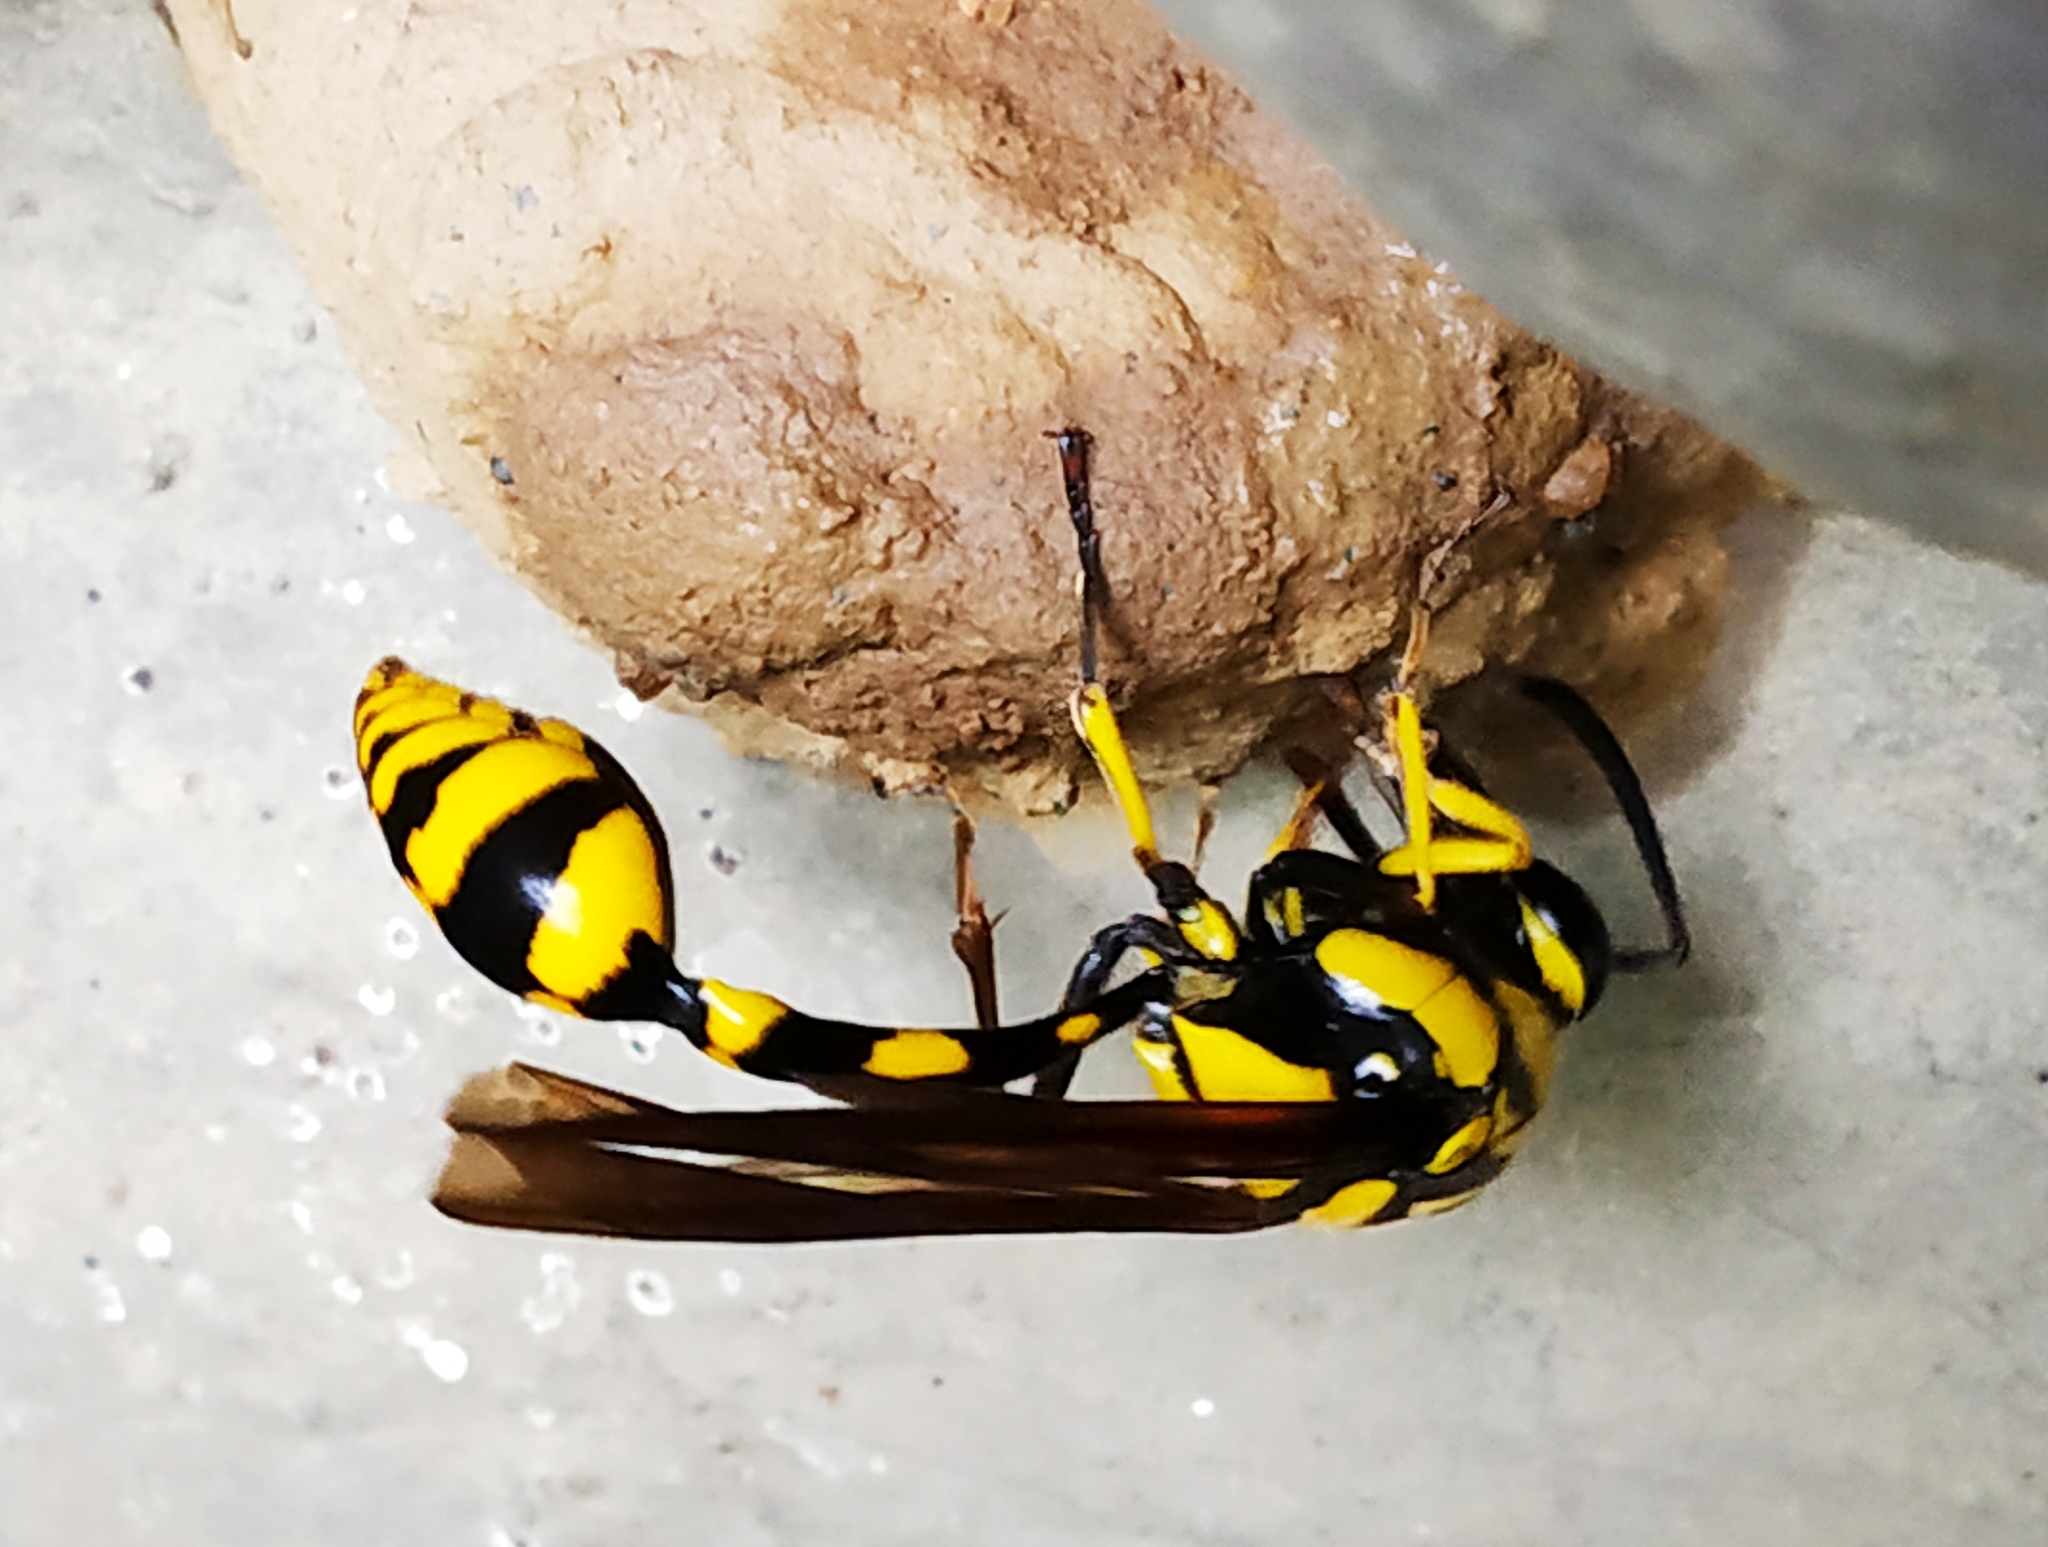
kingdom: Animalia
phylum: Arthropoda
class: Insecta
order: Hymenoptera
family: Eumenidae
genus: Phimenes
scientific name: Phimenes flavopictus
